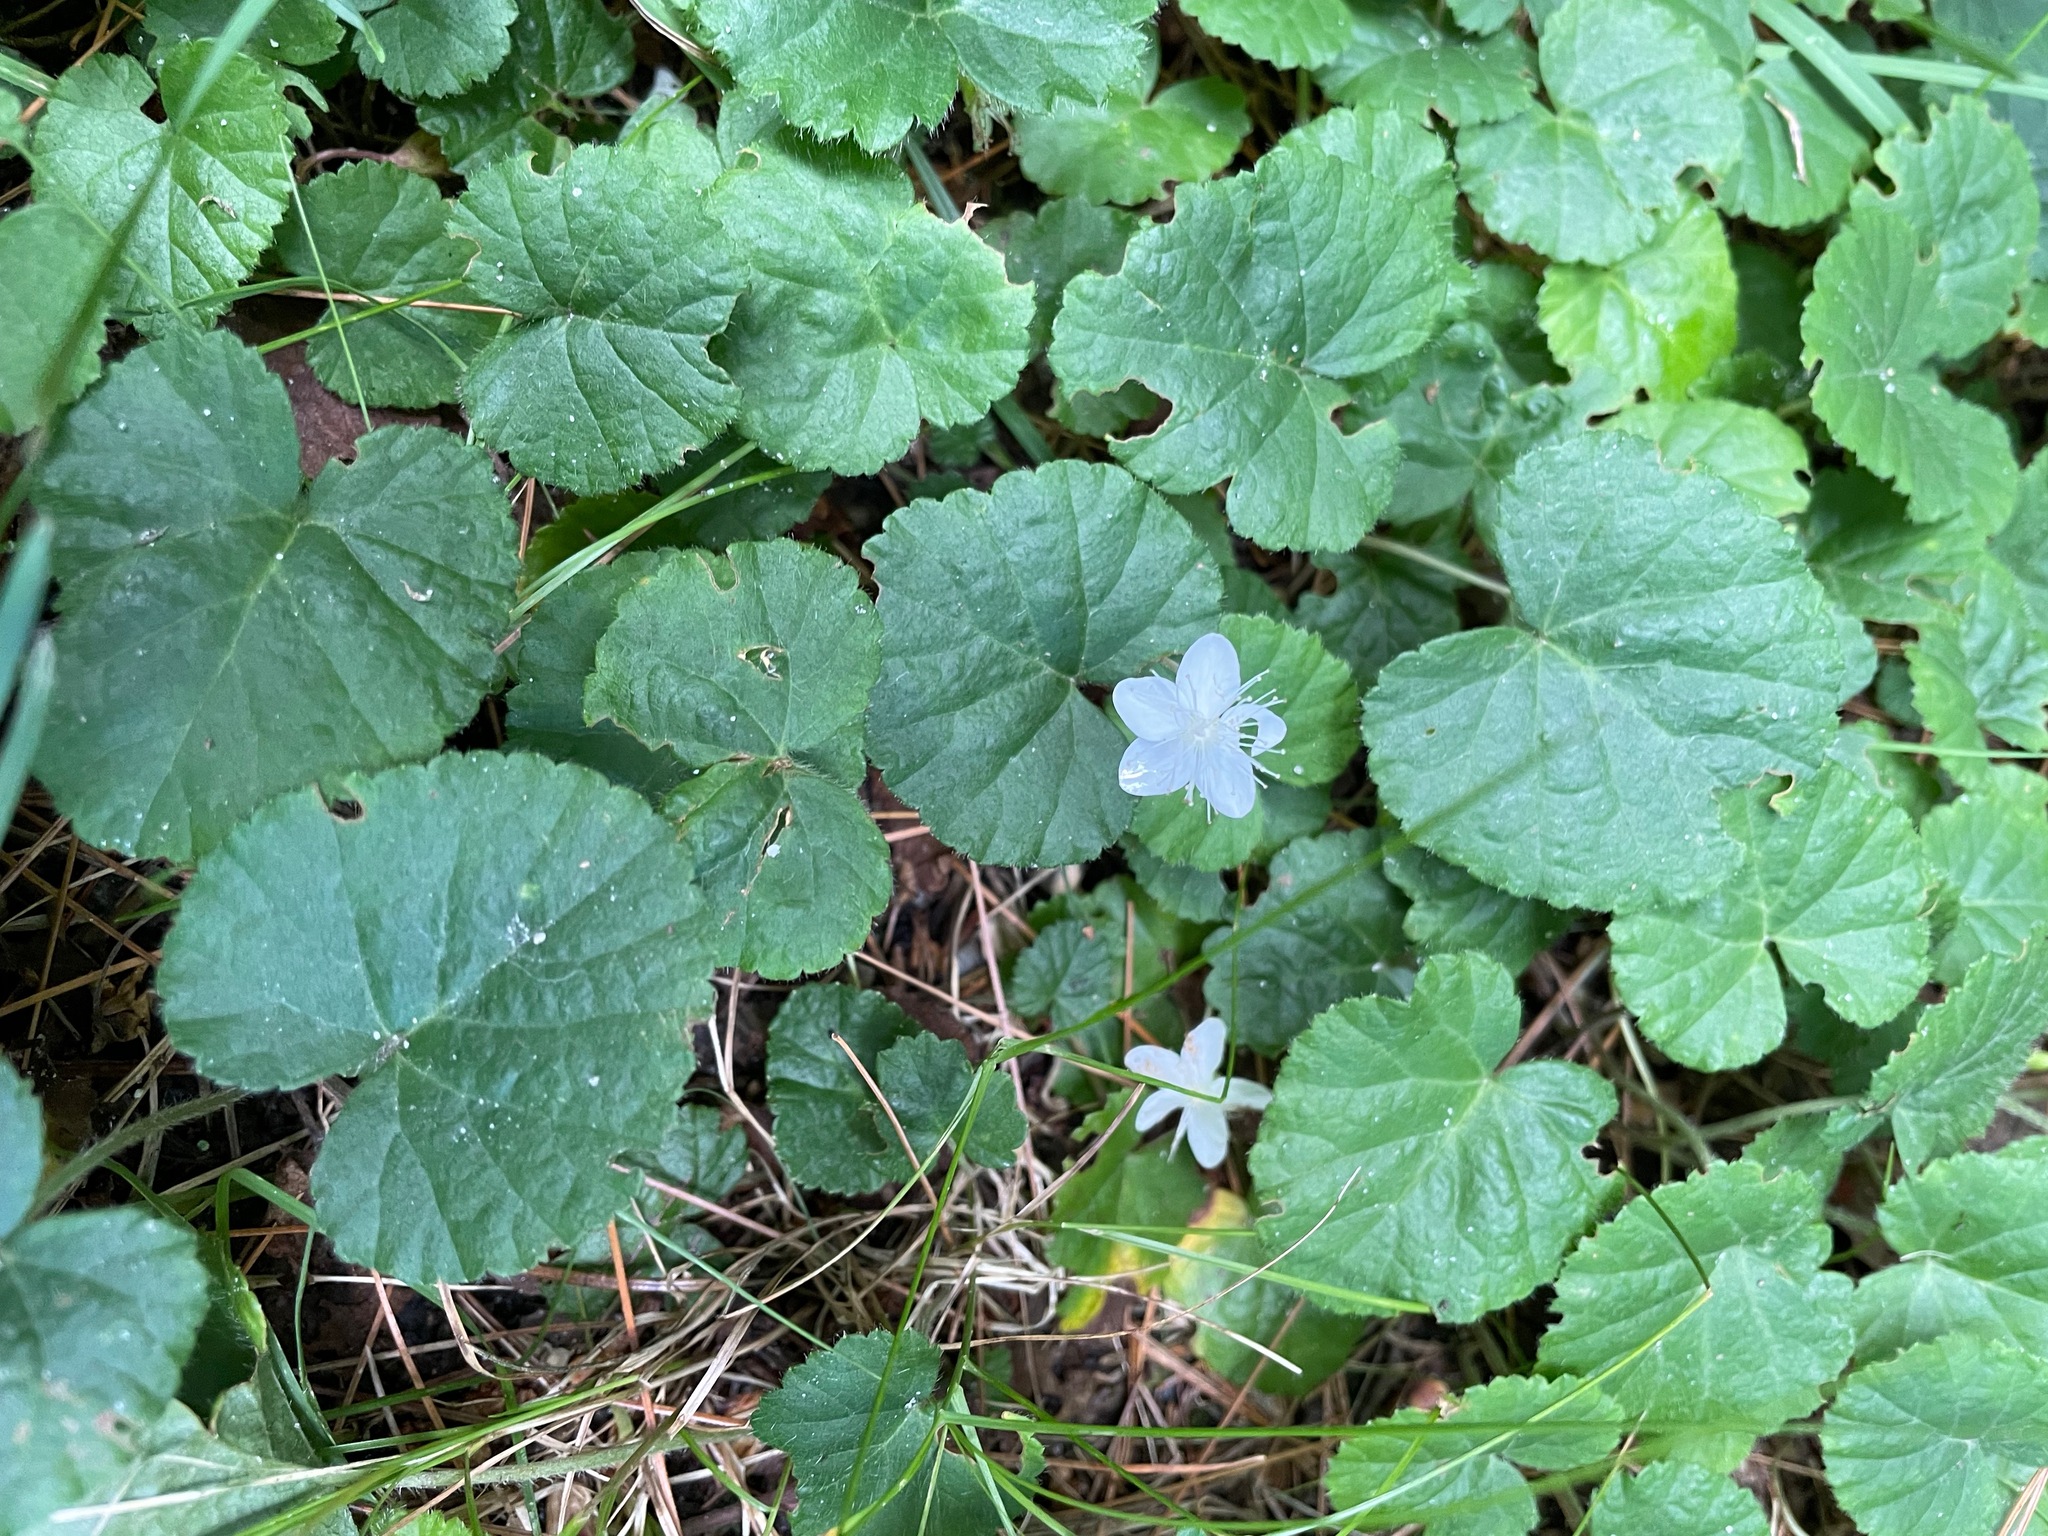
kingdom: Plantae
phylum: Tracheophyta
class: Magnoliopsida
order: Rosales
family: Rosaceae
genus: Dalibarda
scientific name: Dalibarda repens
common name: Dewdrop
